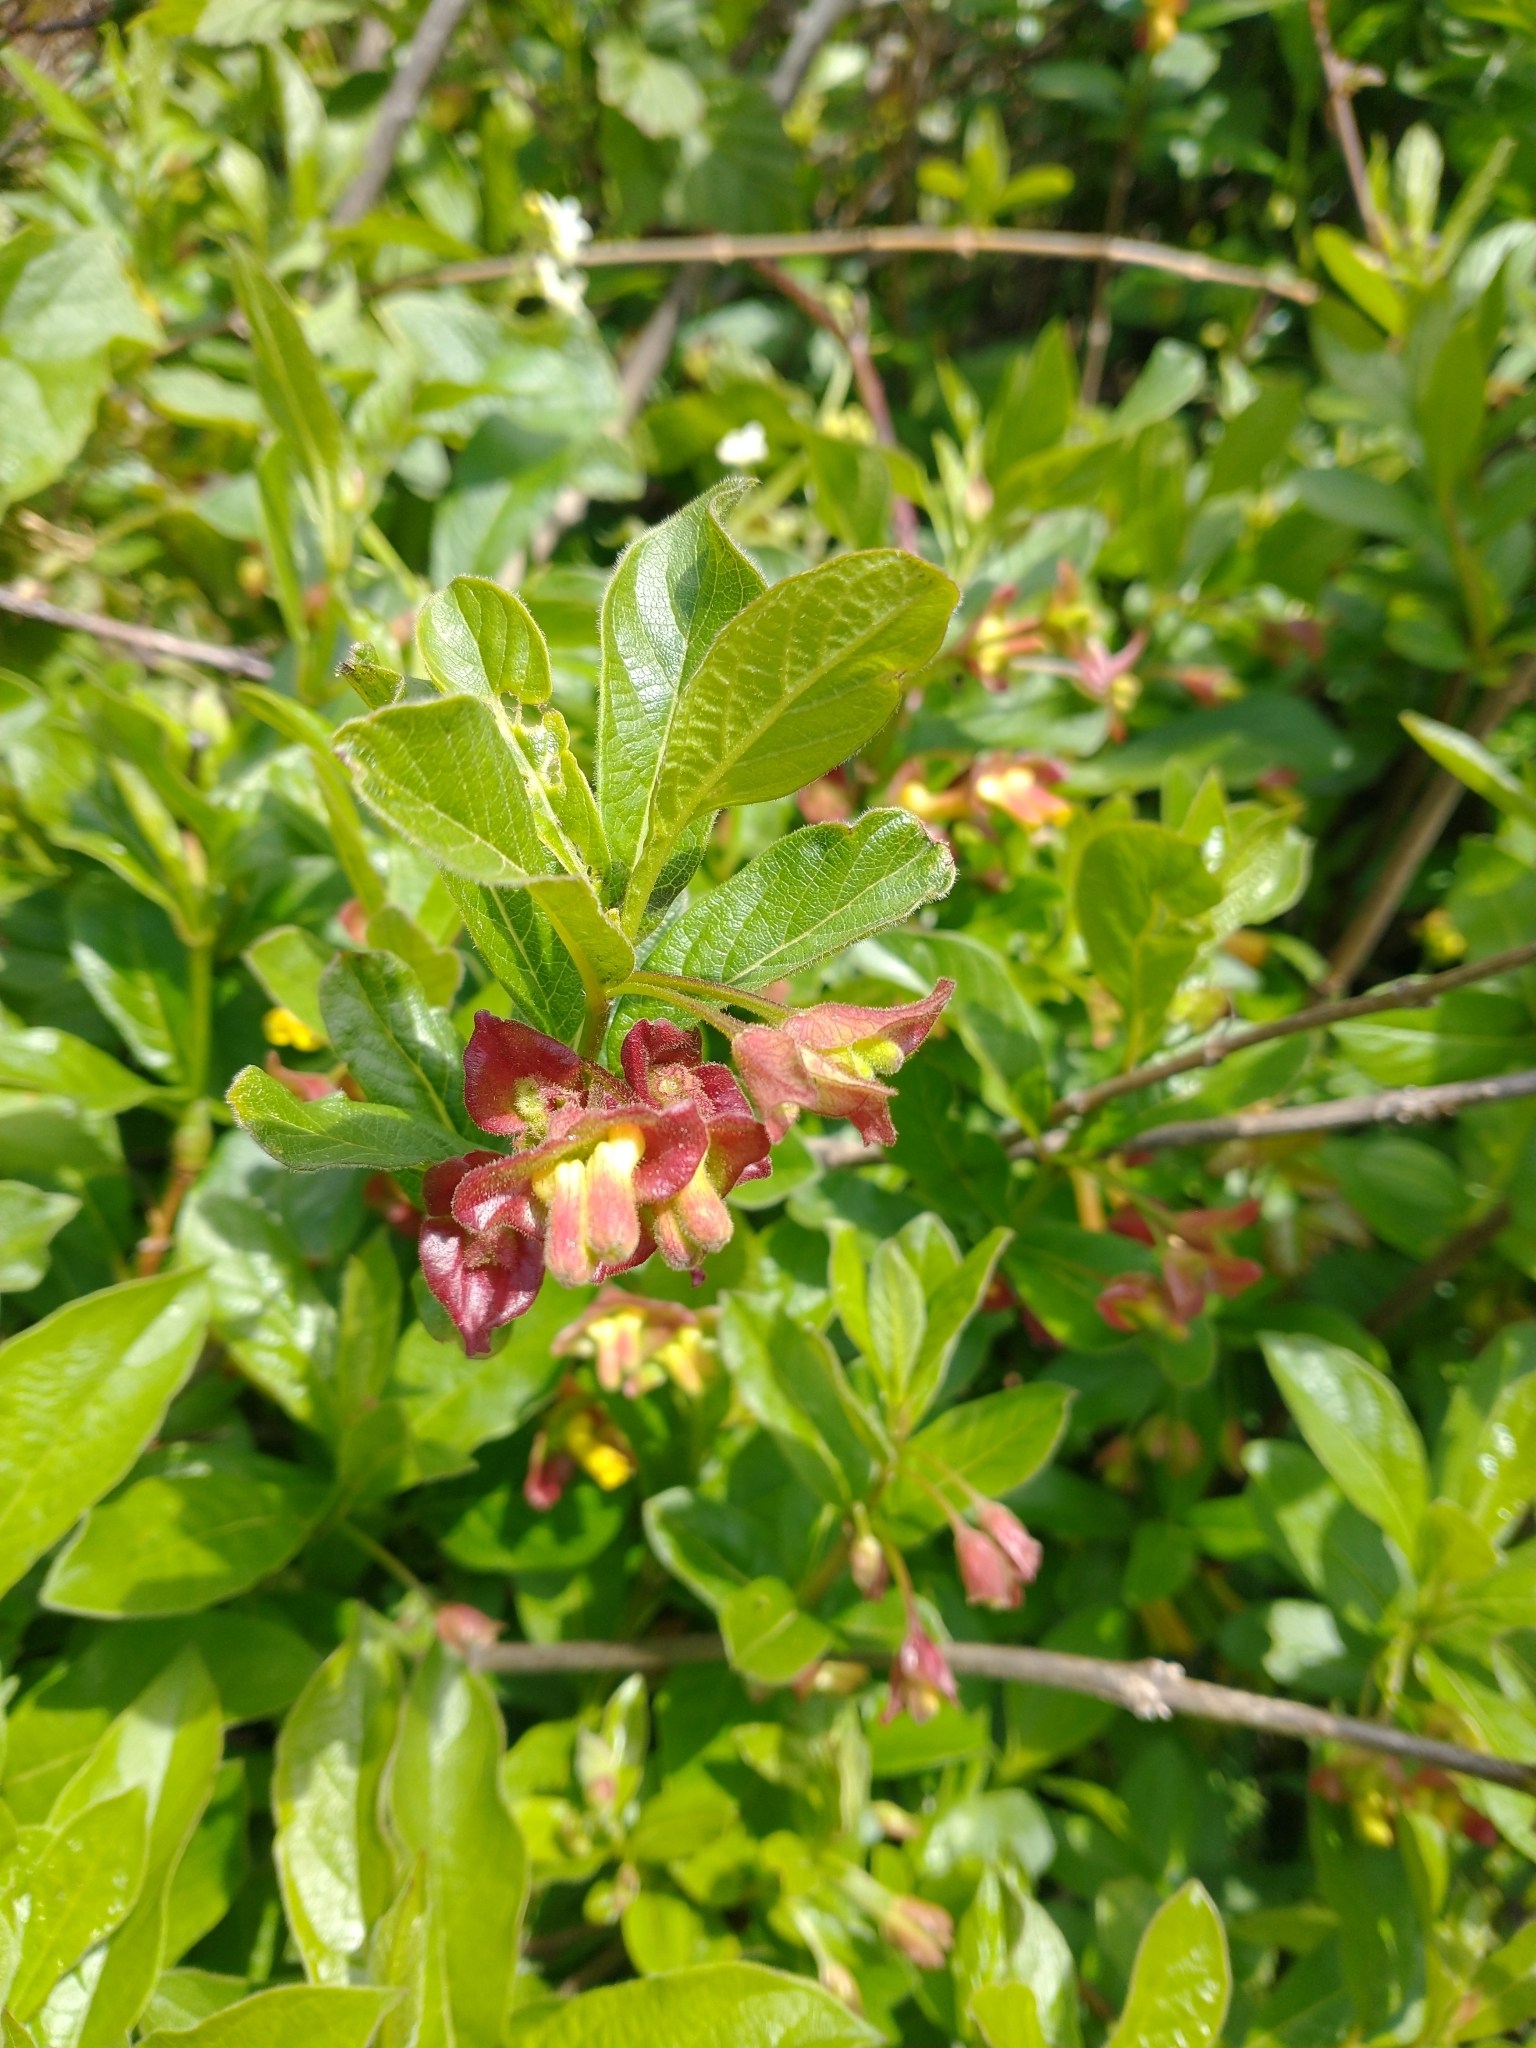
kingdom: Plantae
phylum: Tracheophyta
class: Magnoliopsida
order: Dipsacales
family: Caprifoliaceae
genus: Lonicera
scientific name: Lonicera involucrata
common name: Californian honeysuckle
